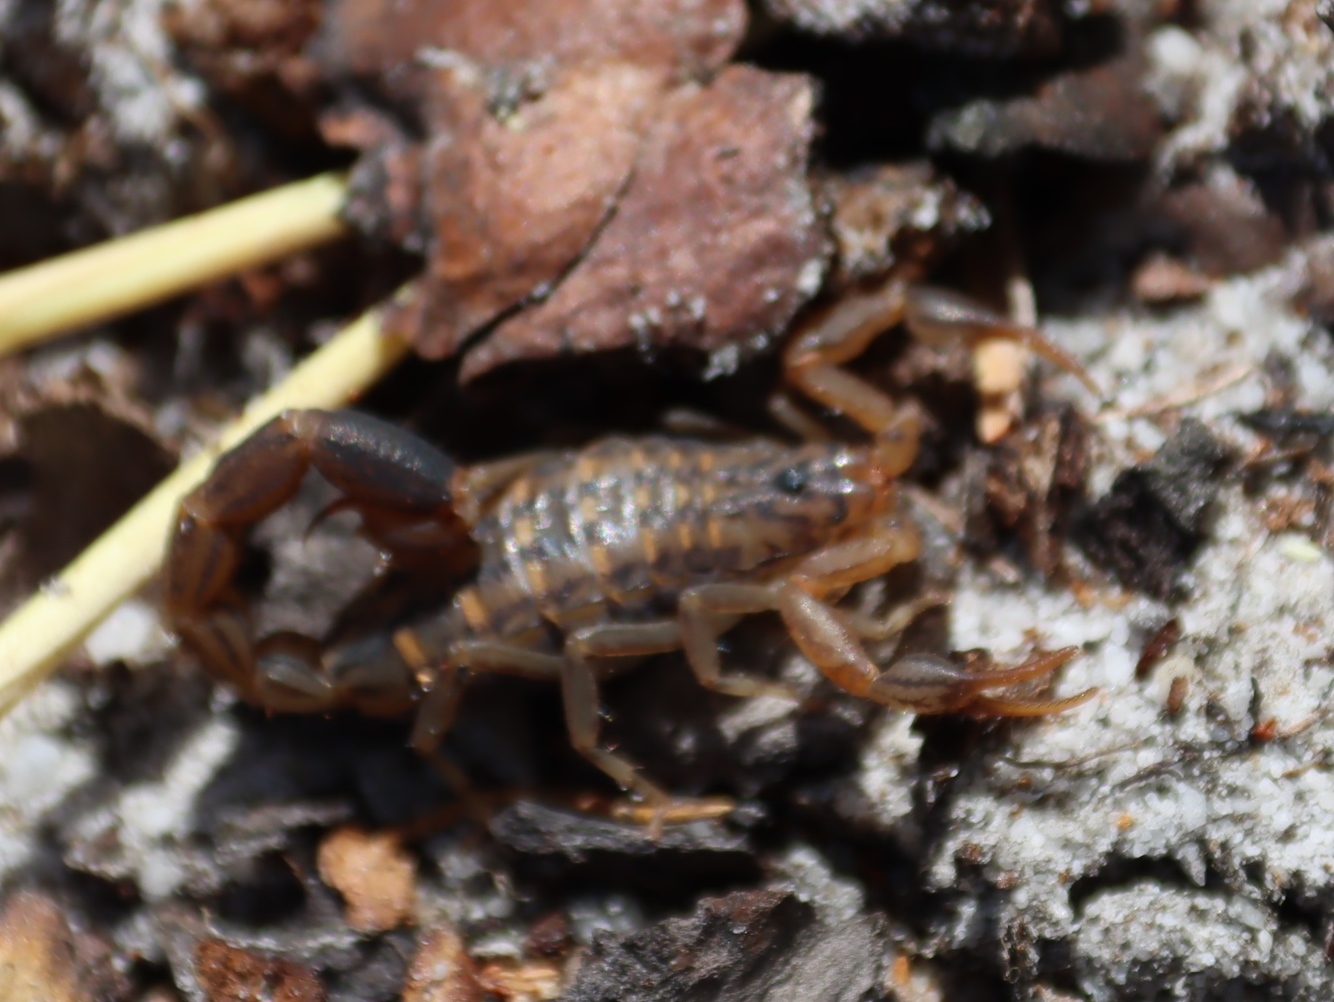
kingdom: Animalia
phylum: Arthropoda
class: Arachnida
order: Scorpiones
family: Buthidae
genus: Uroplectes
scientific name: Uroplectes lineatus
